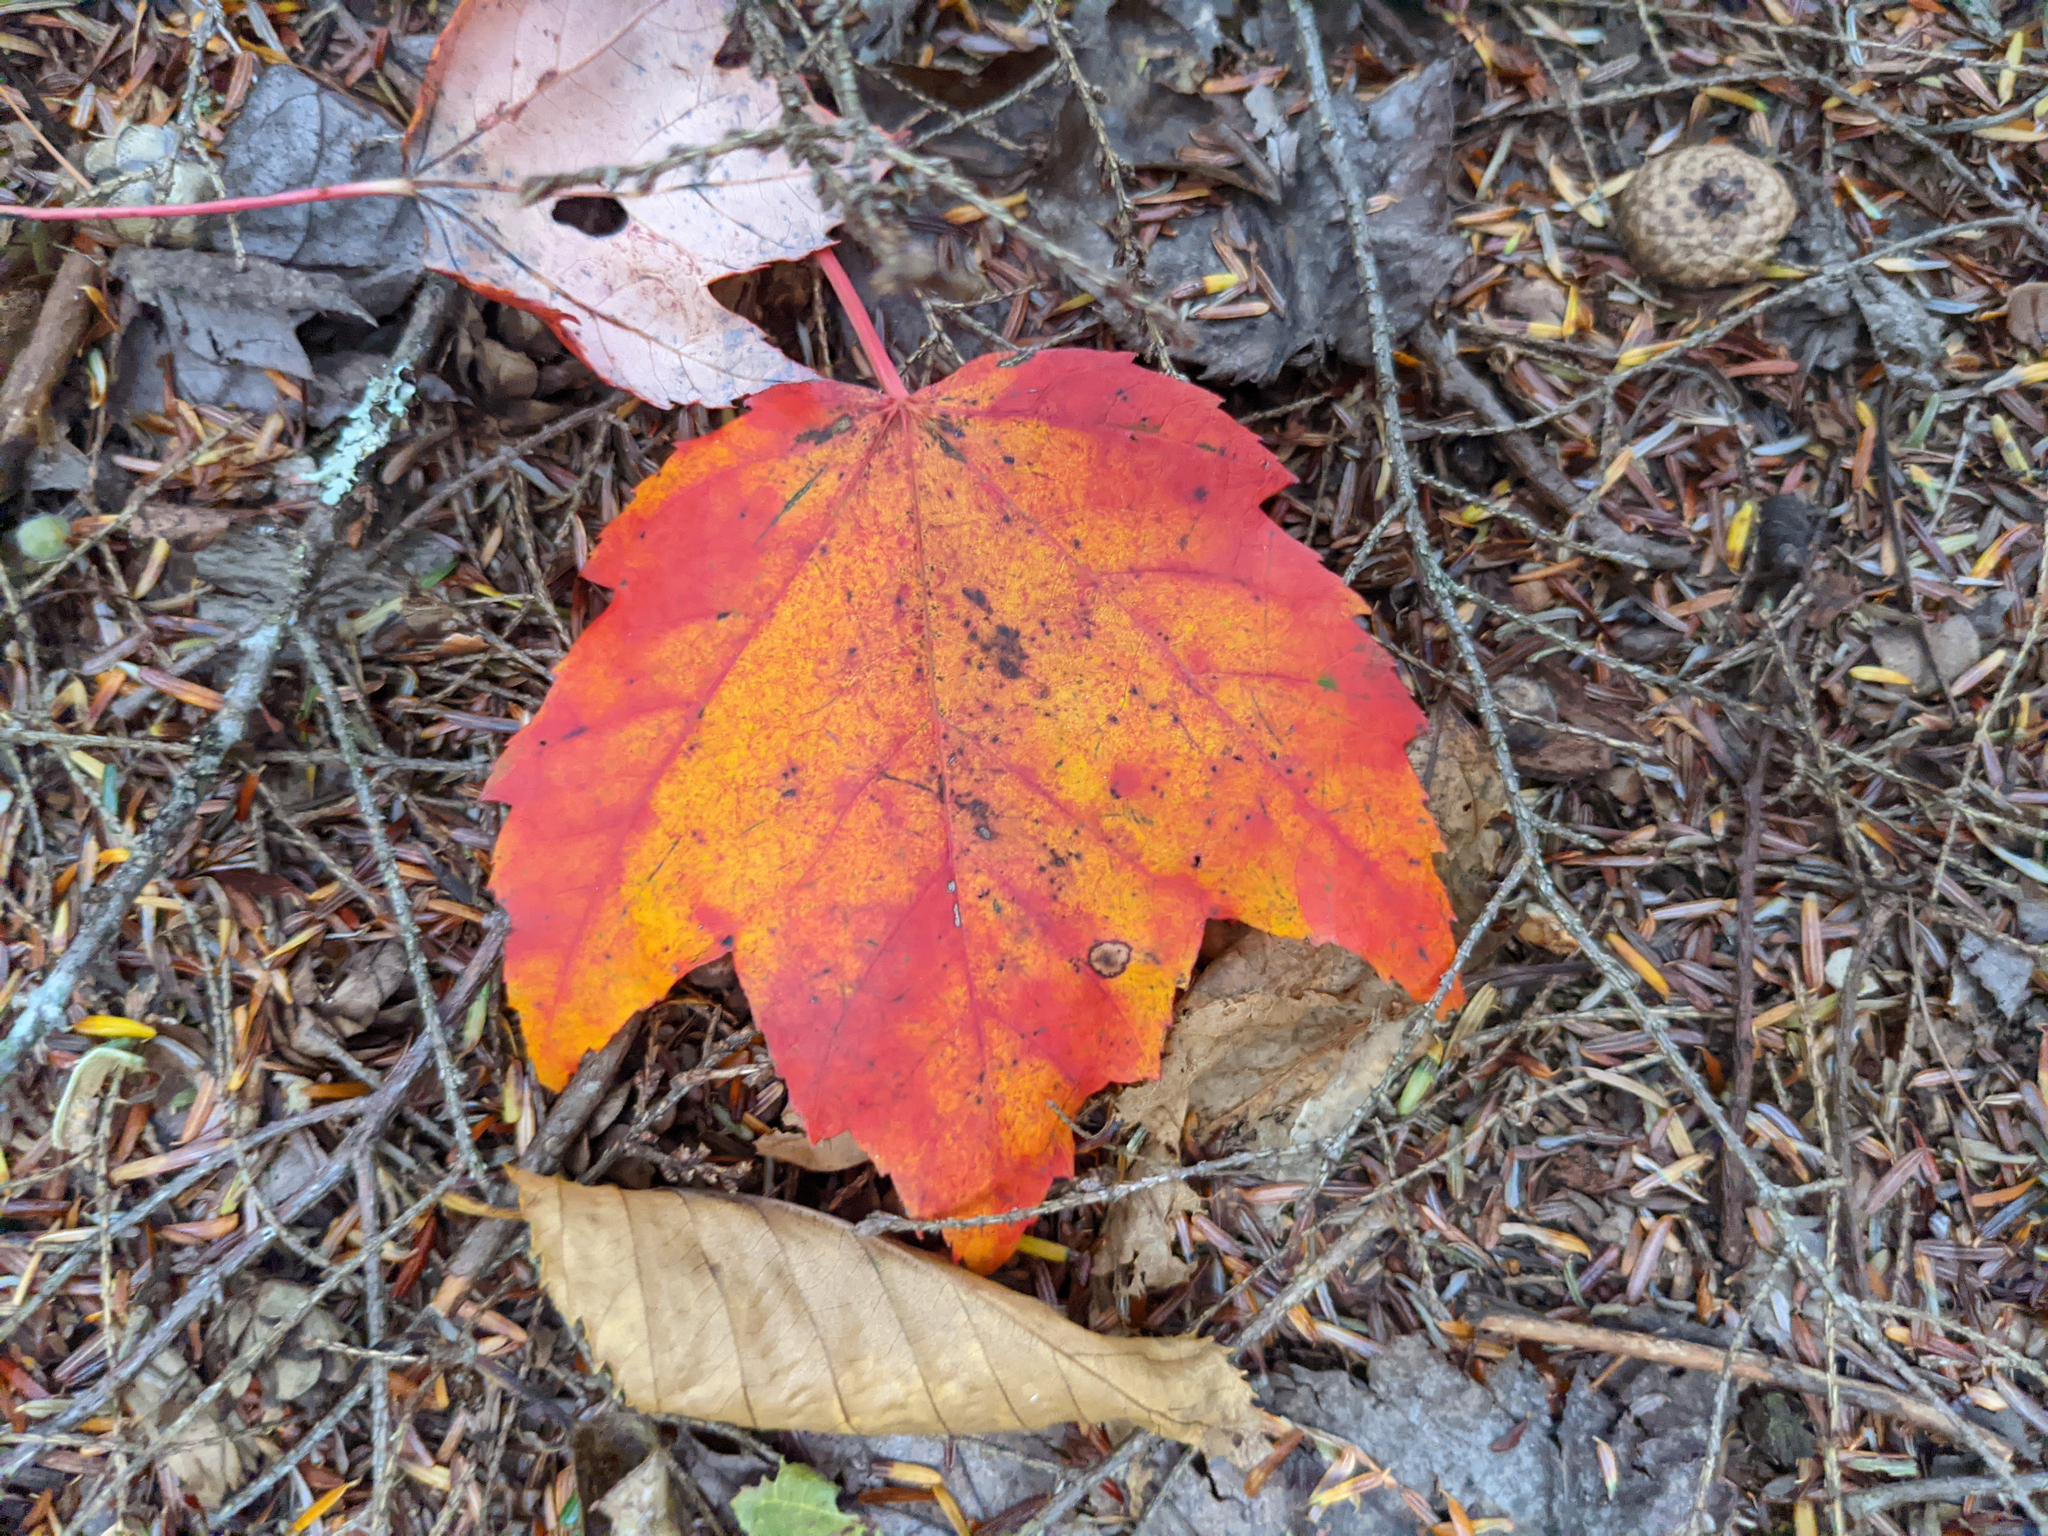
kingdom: Plantae
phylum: Tracheophyta
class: Magnoliopsida
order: Sapindales
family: Sapindaceae
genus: Acer
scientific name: Acer rubrum
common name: Red maple
